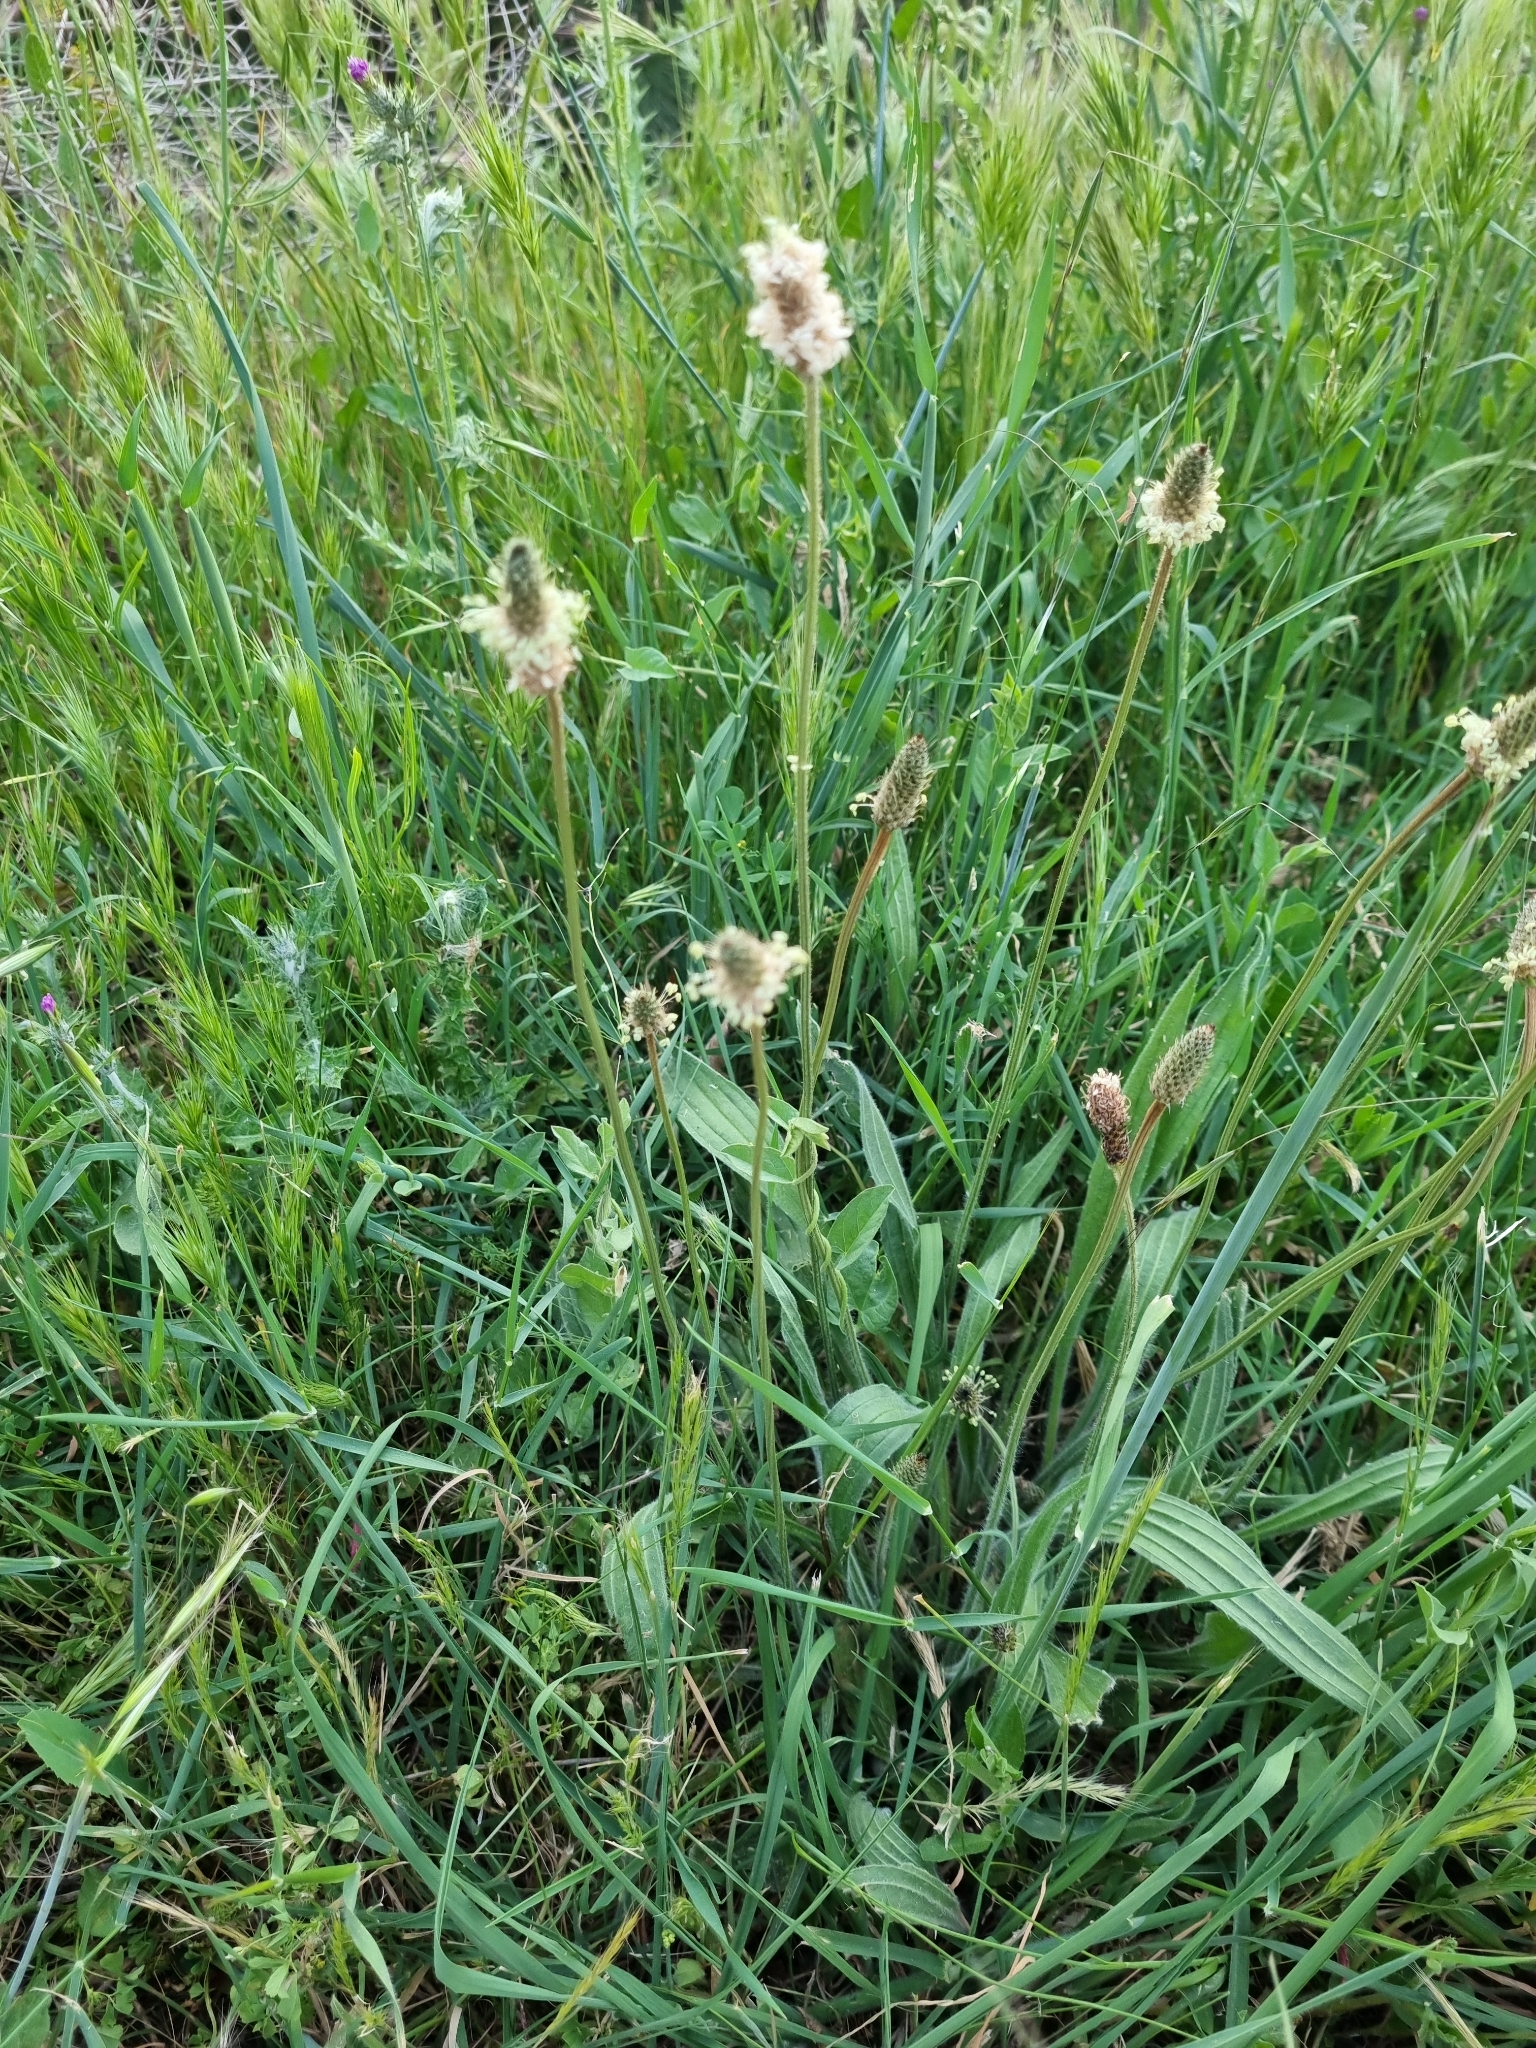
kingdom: Plantae
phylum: Tracheophyta
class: Magnoliopsida
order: Lamiales
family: Plantaginaceae
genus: Plantago
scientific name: Plantago lanceolata
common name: Ribwort plantain
